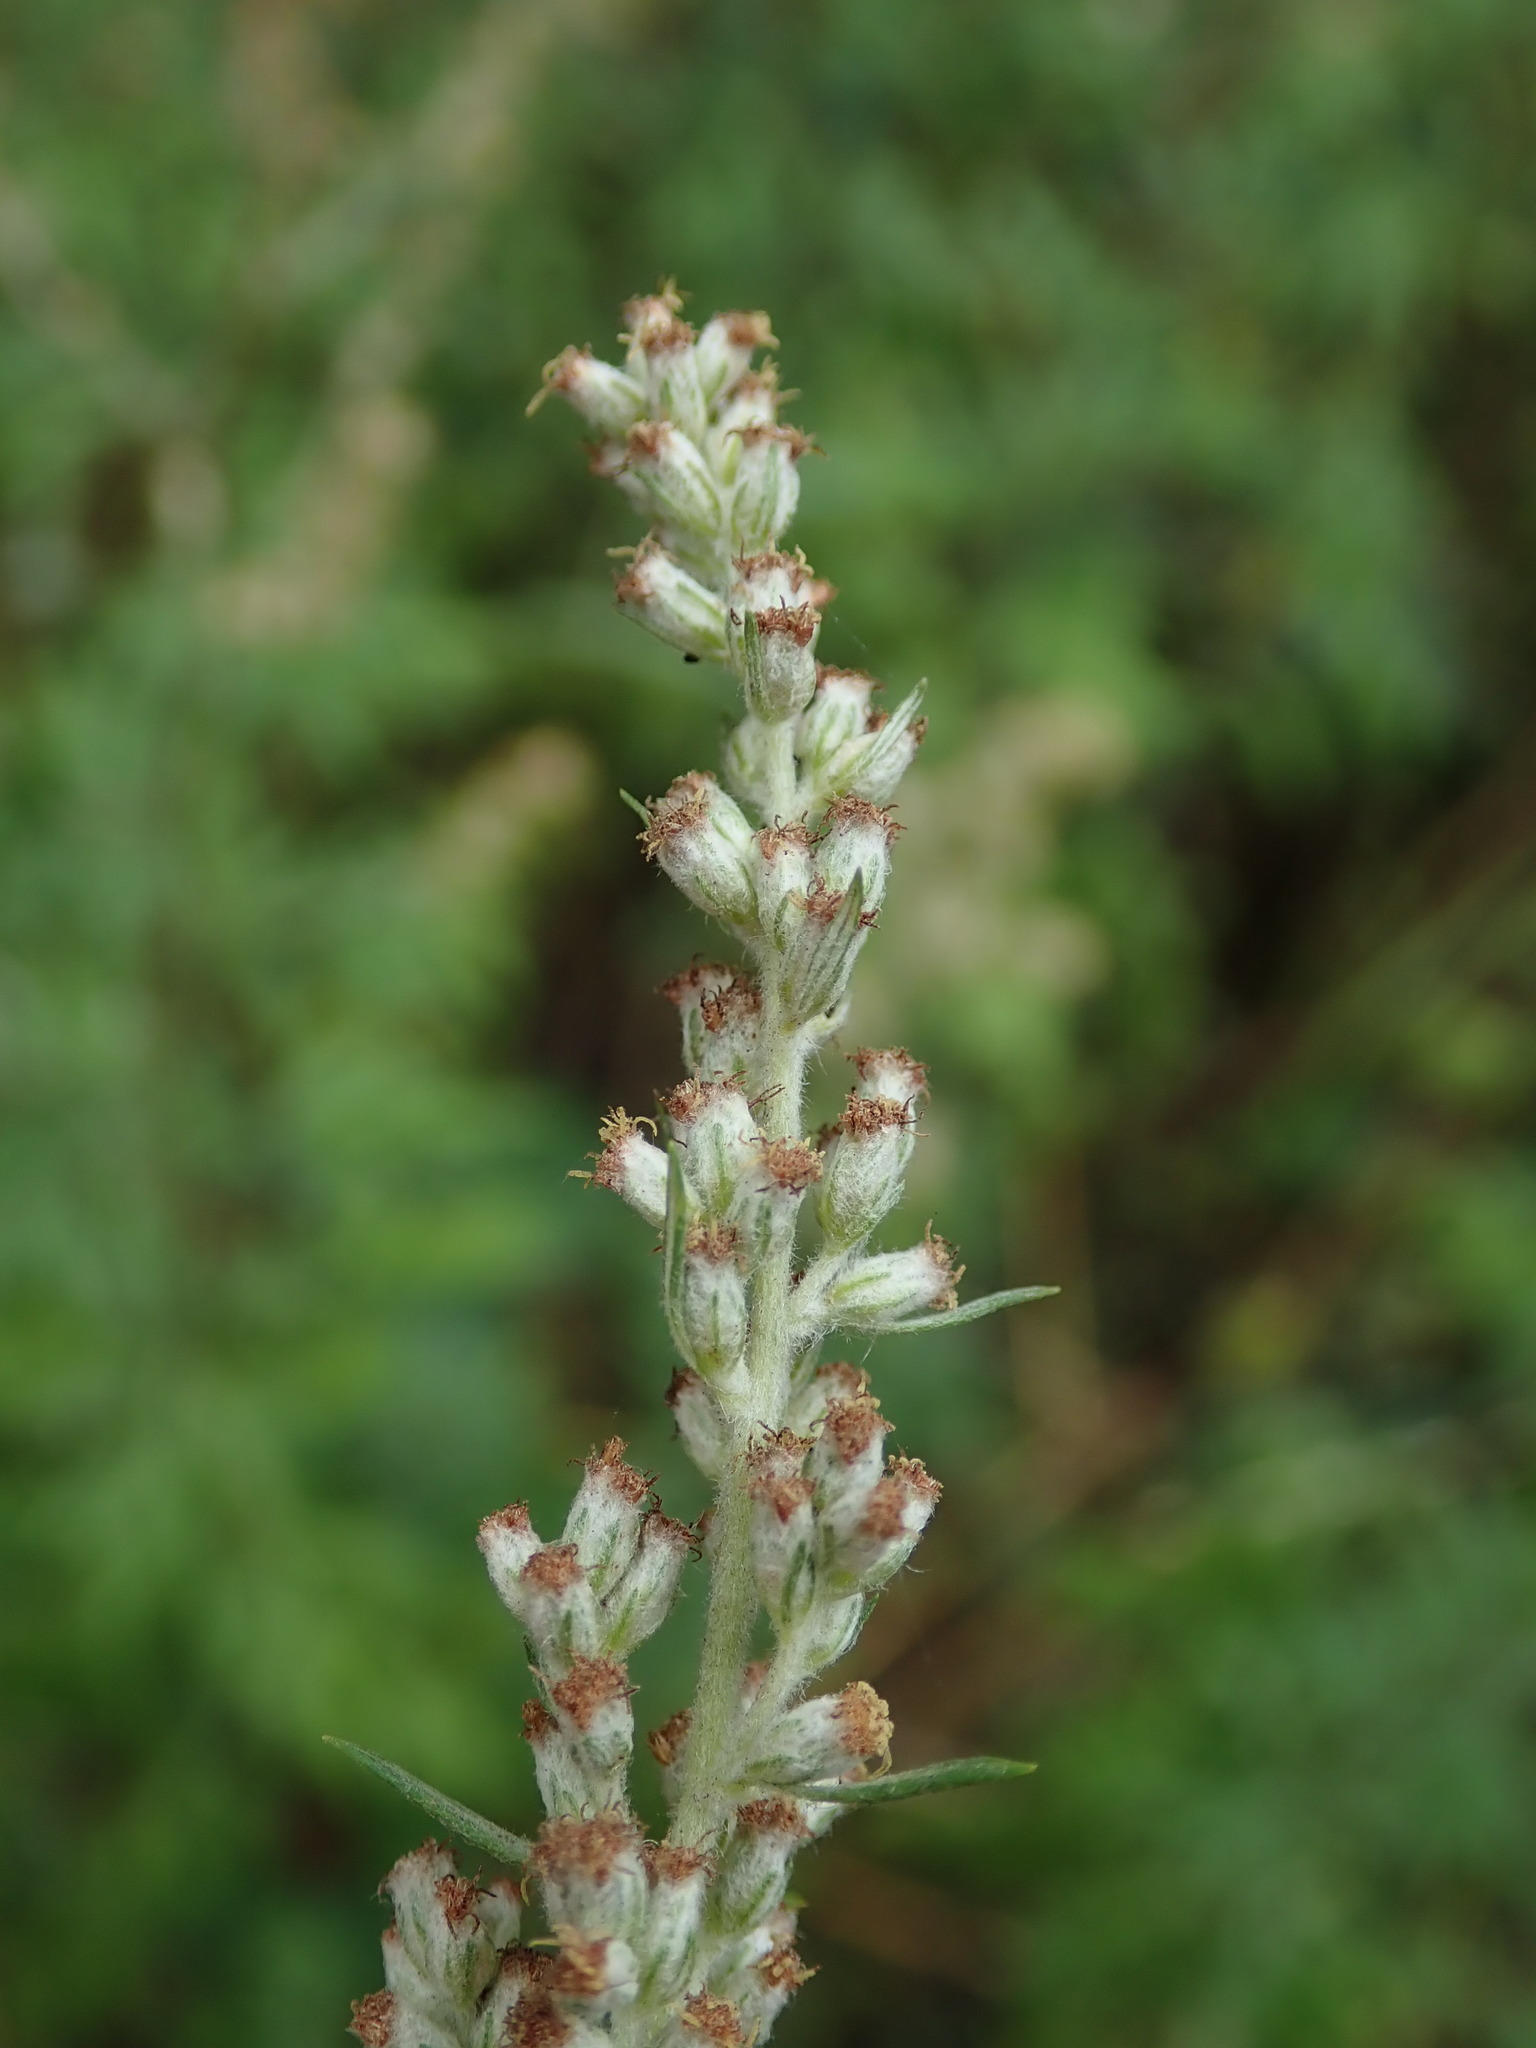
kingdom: Plantae
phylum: Tracheophyta
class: Magnoliopsida
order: Asterales
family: Asteraceae
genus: Artemisia
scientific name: Artemisia vulgaris
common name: Mugwort
